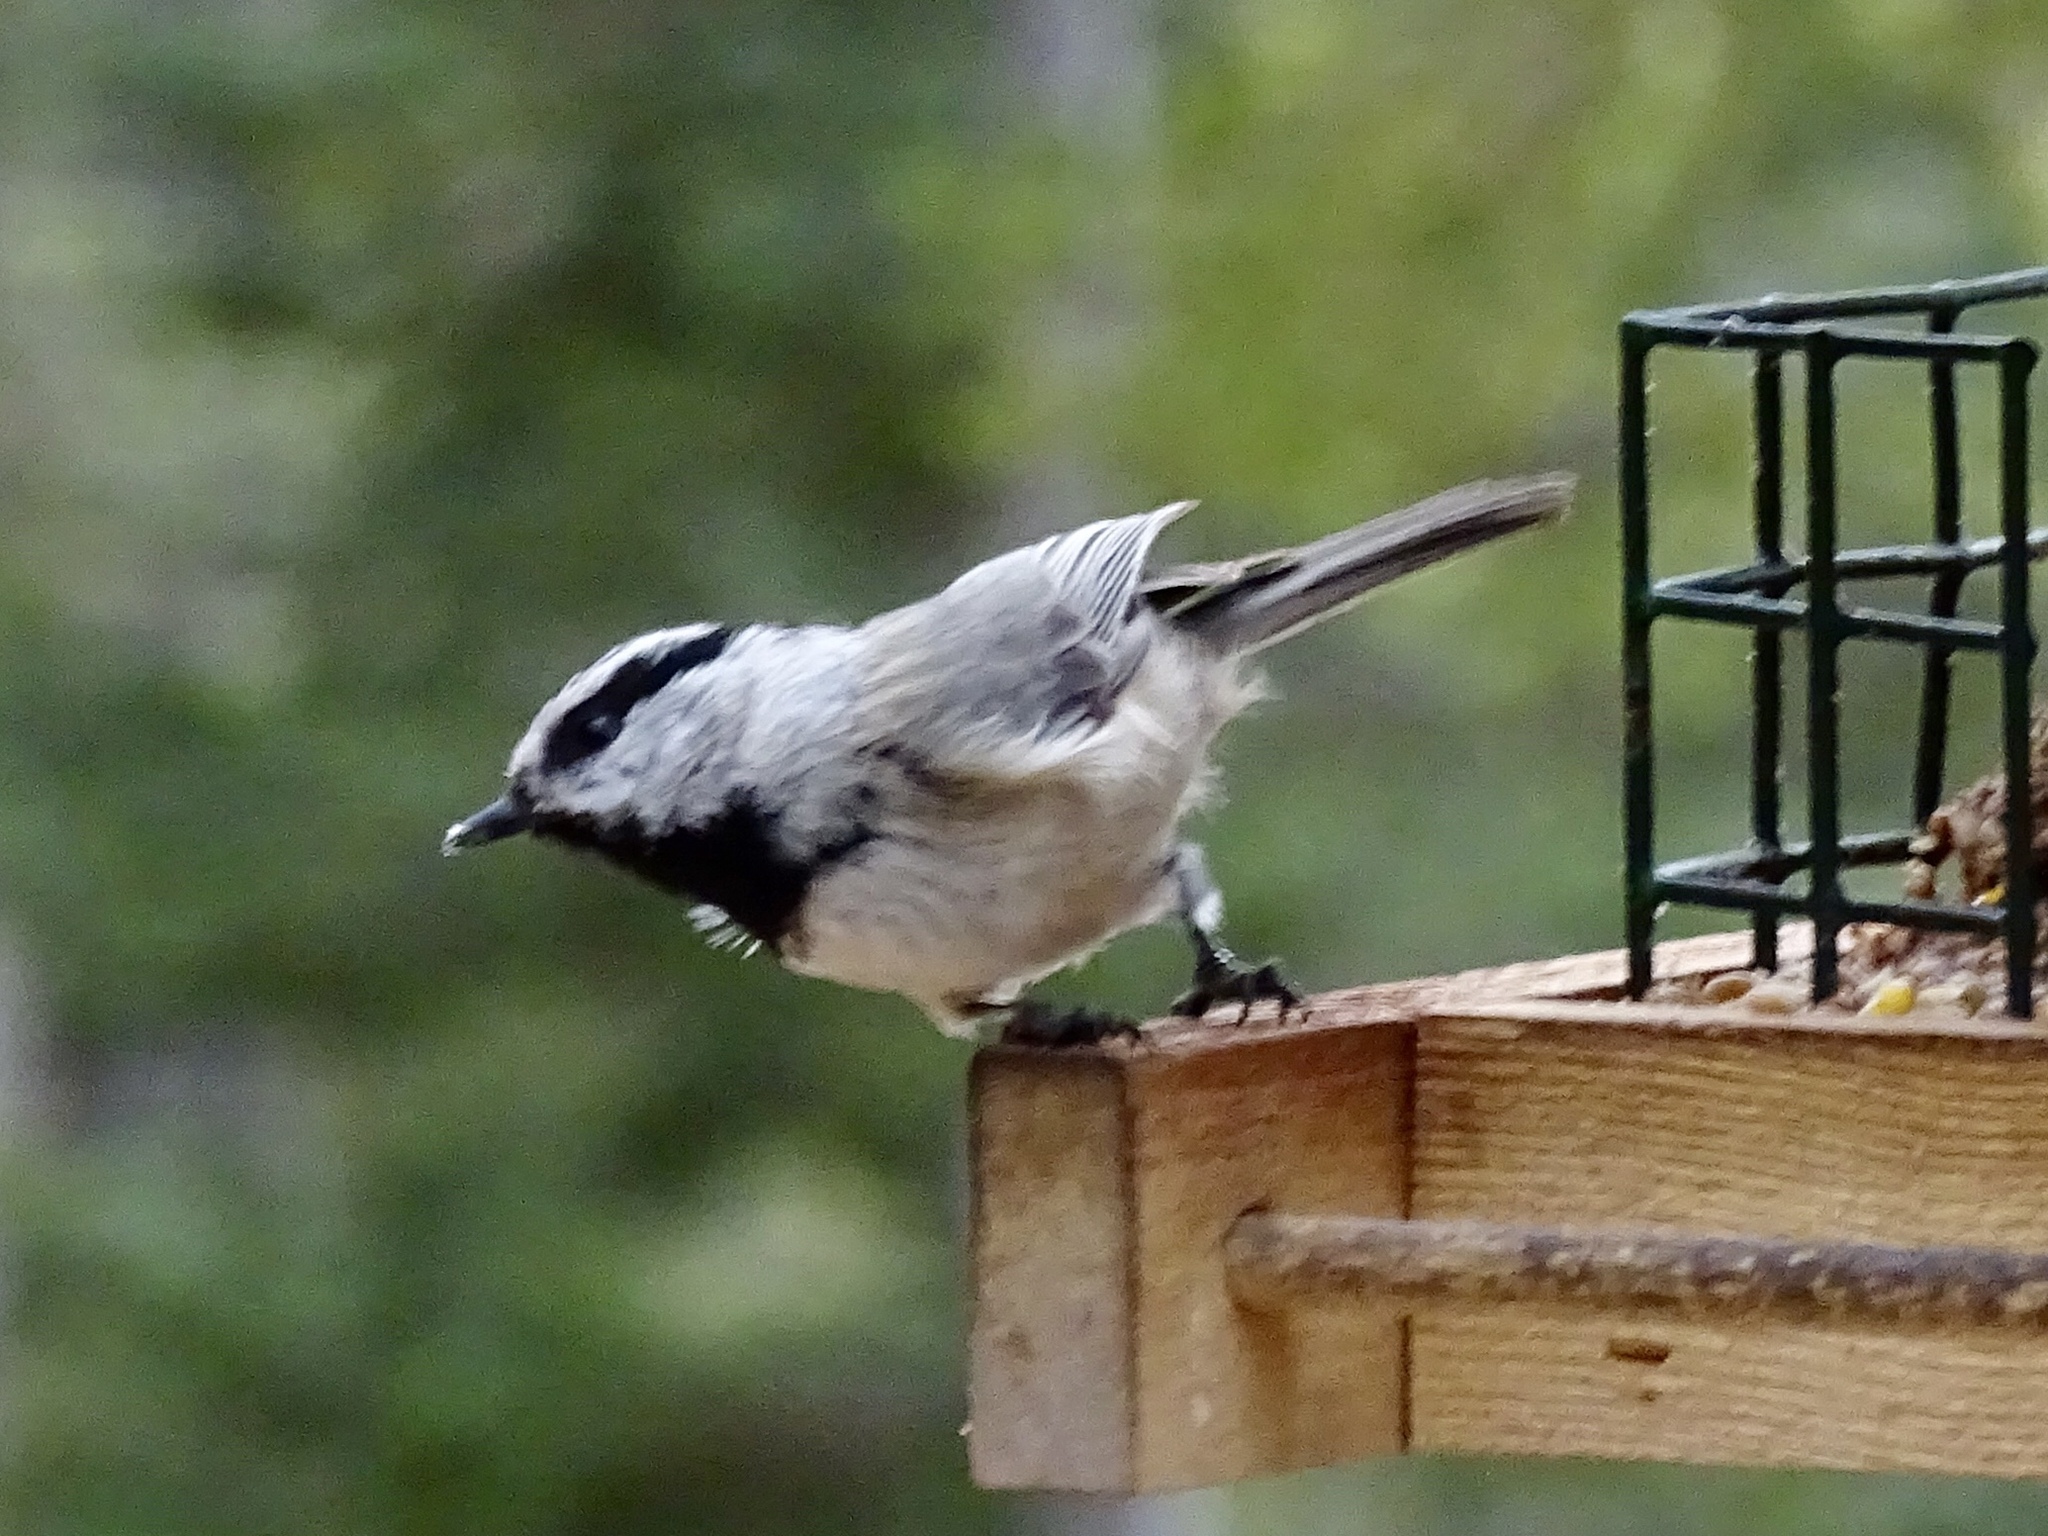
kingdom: Animalia
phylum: Chordata
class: Aves
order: Passeriformes
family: Paridae
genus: Poecile
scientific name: Poecile gambeli
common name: Mountain chickadee
